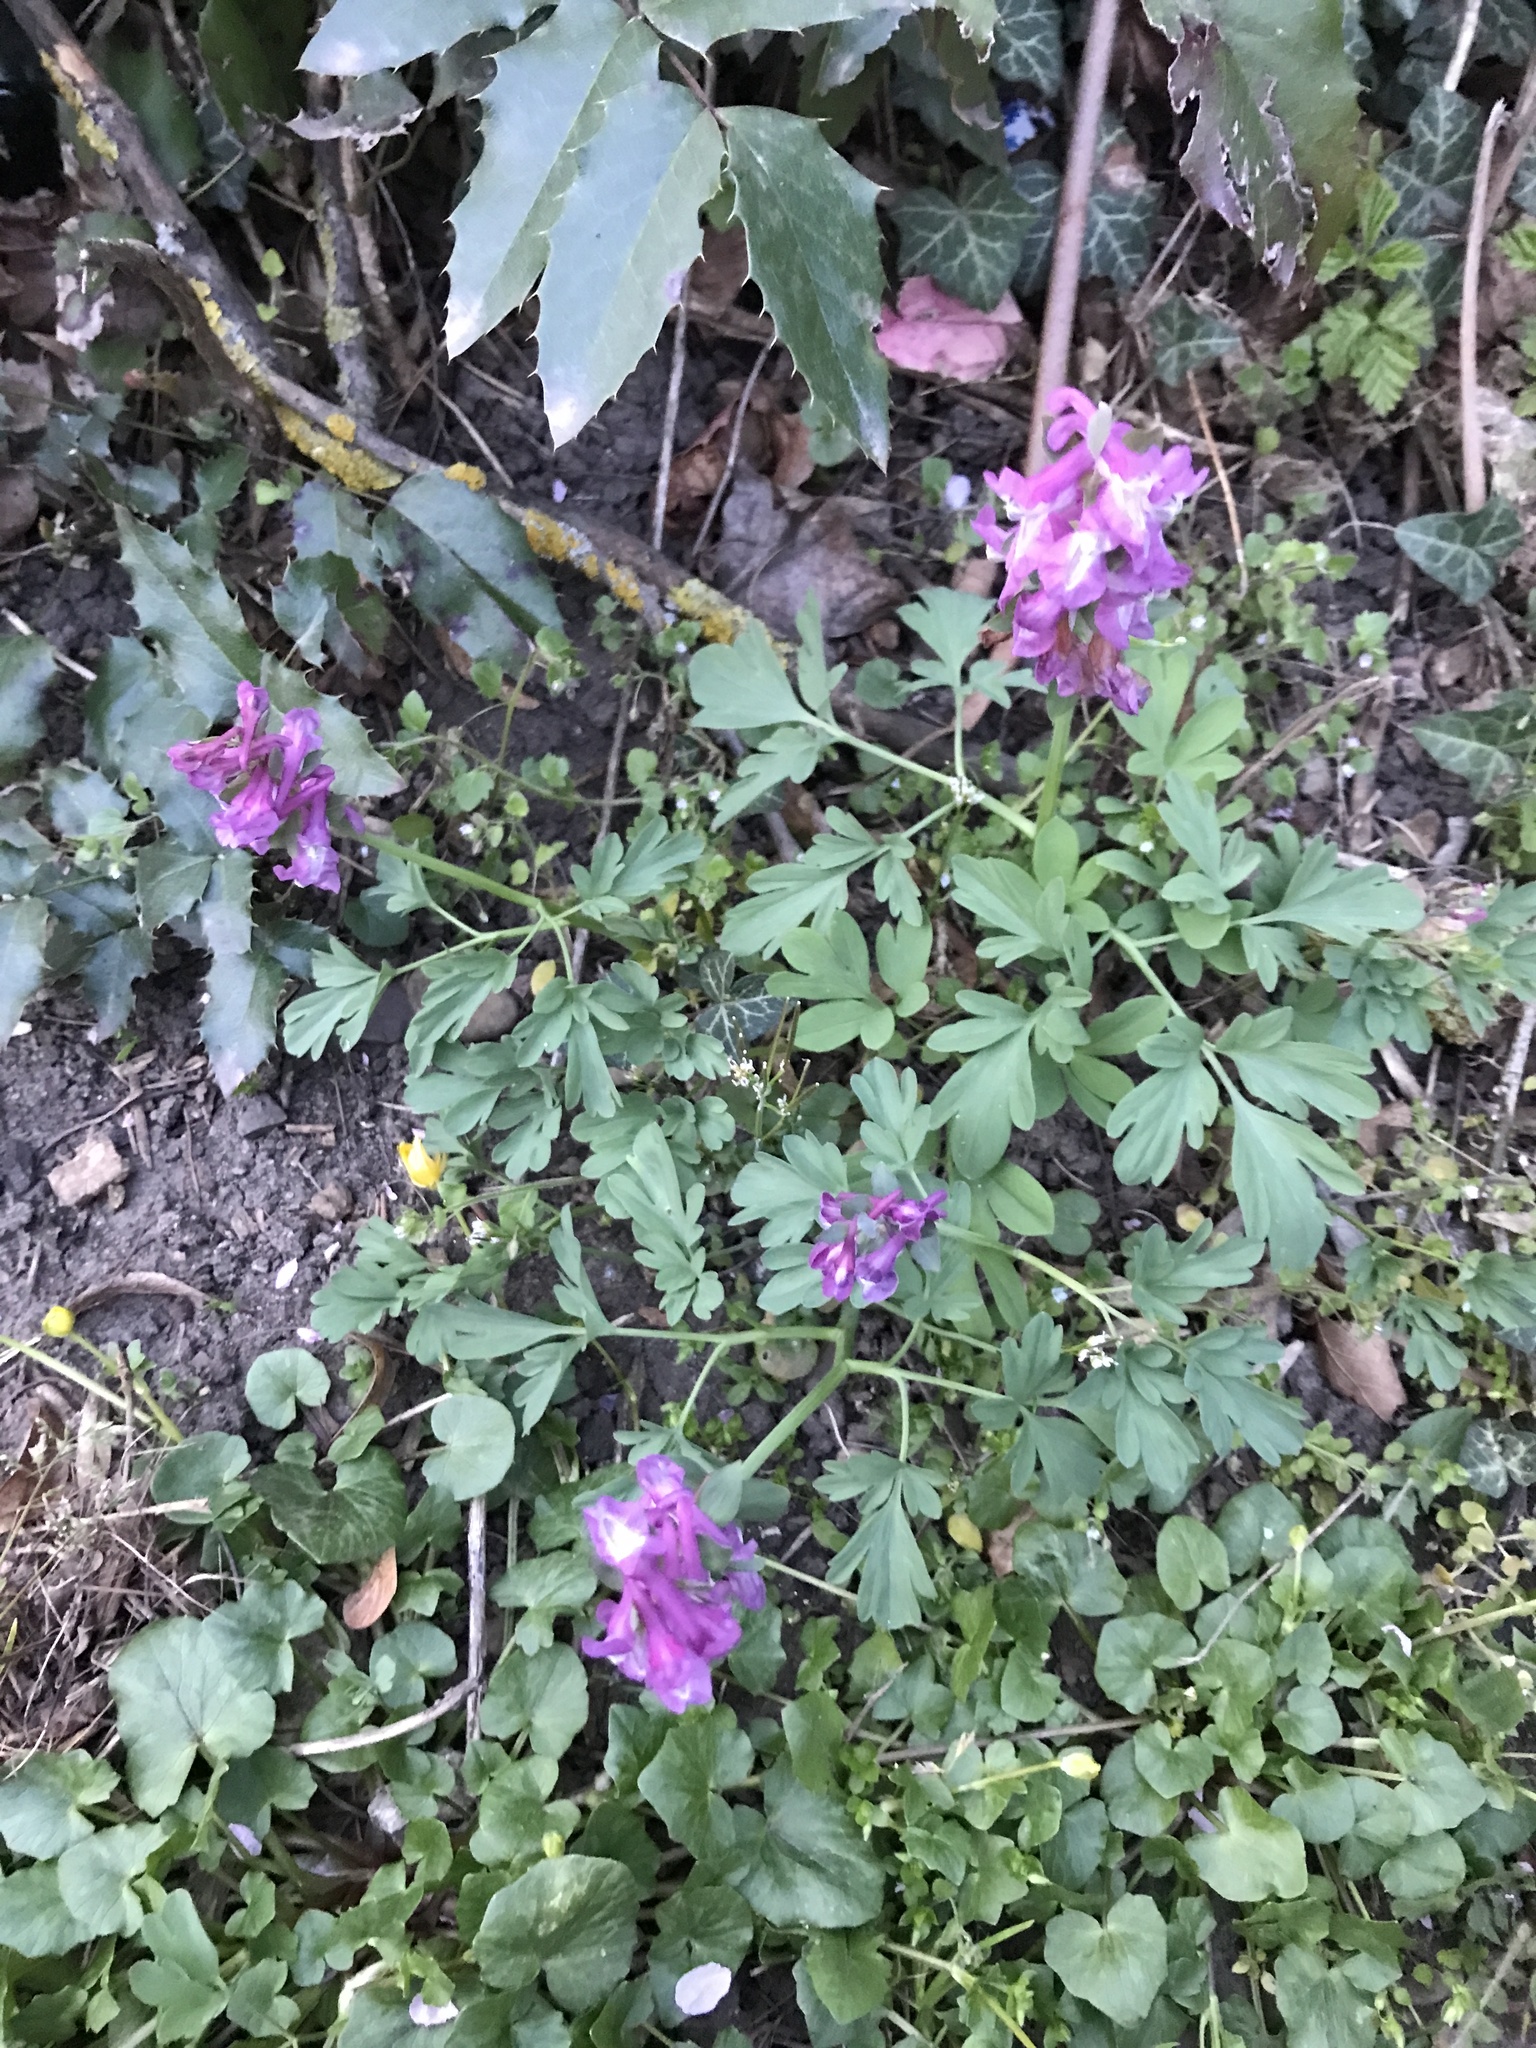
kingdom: Plantae
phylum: Tracheophyta
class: Magnoliopsida
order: Ranunculales
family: Papaveraceae
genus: Corydalis
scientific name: Corydalis cava
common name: Hollowroot
